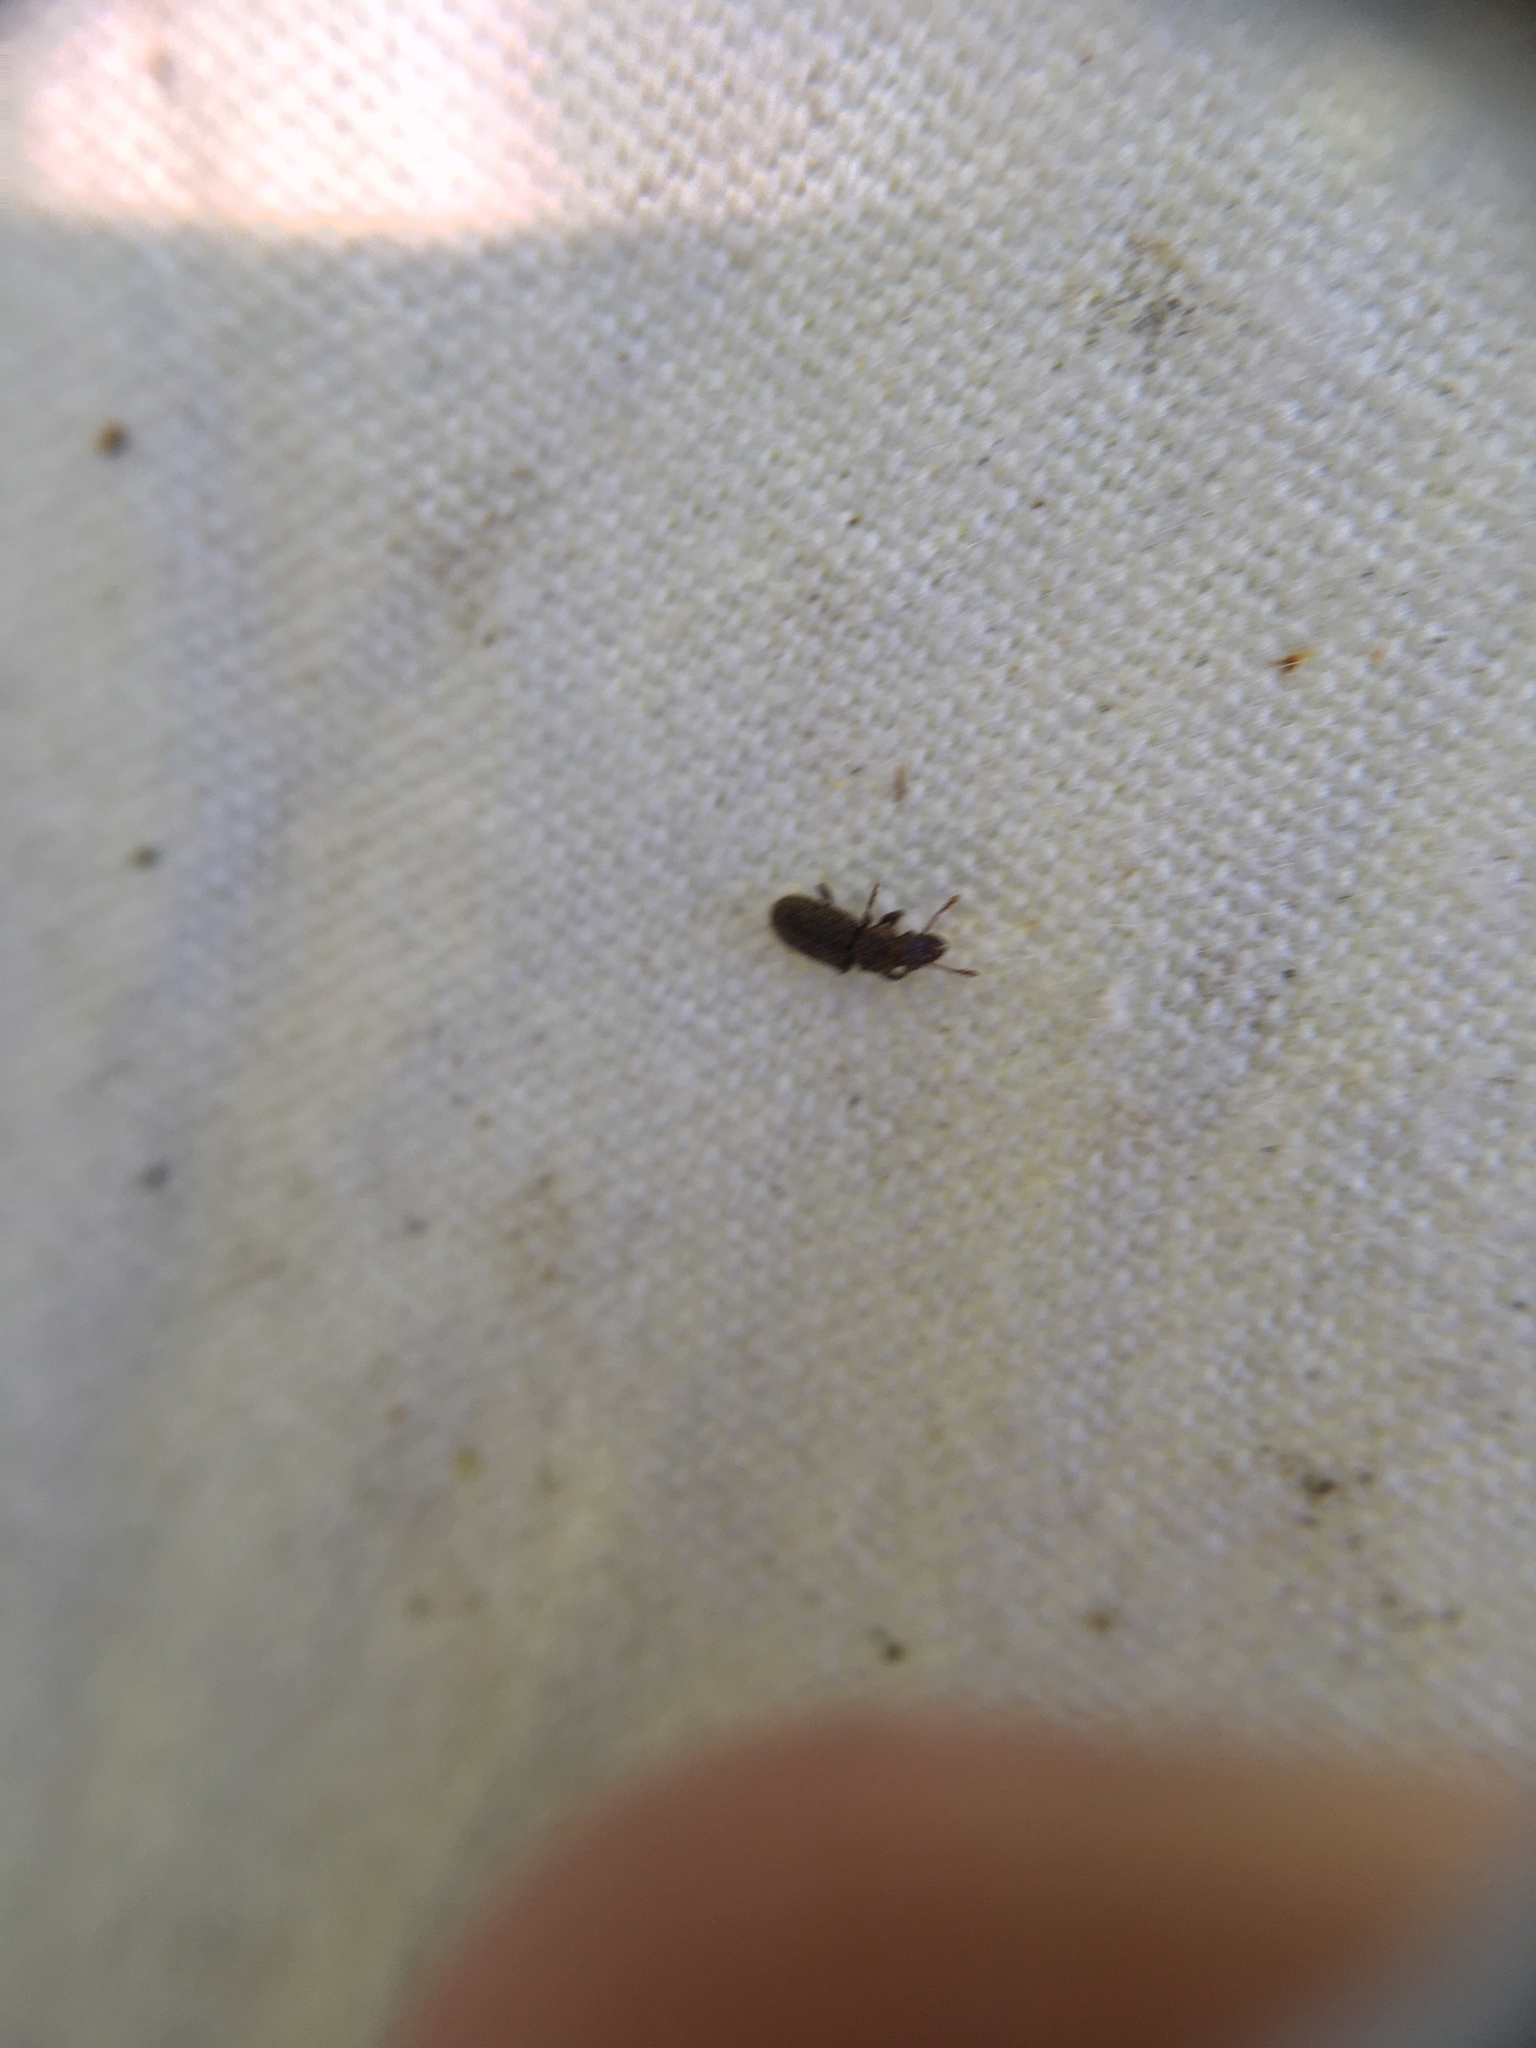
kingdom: Animalia
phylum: Arthropoda
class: Insecta
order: Coleoptera
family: Belidae
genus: Aralius
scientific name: Aralius wollastoni
